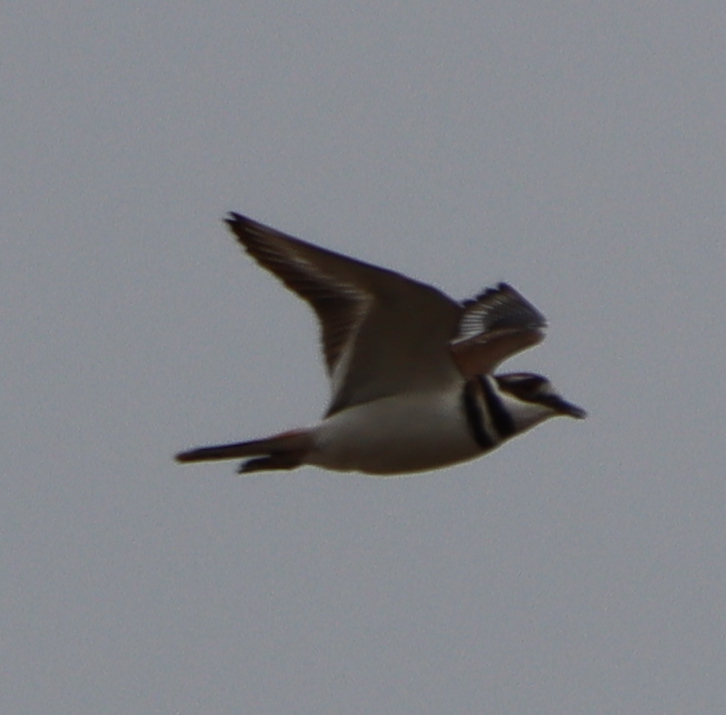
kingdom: Animalia
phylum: Chordata
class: Aves
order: Charadriiformes
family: Charadriidae
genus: Charadrius
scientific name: Charadrius vociferus
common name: Killdeer
